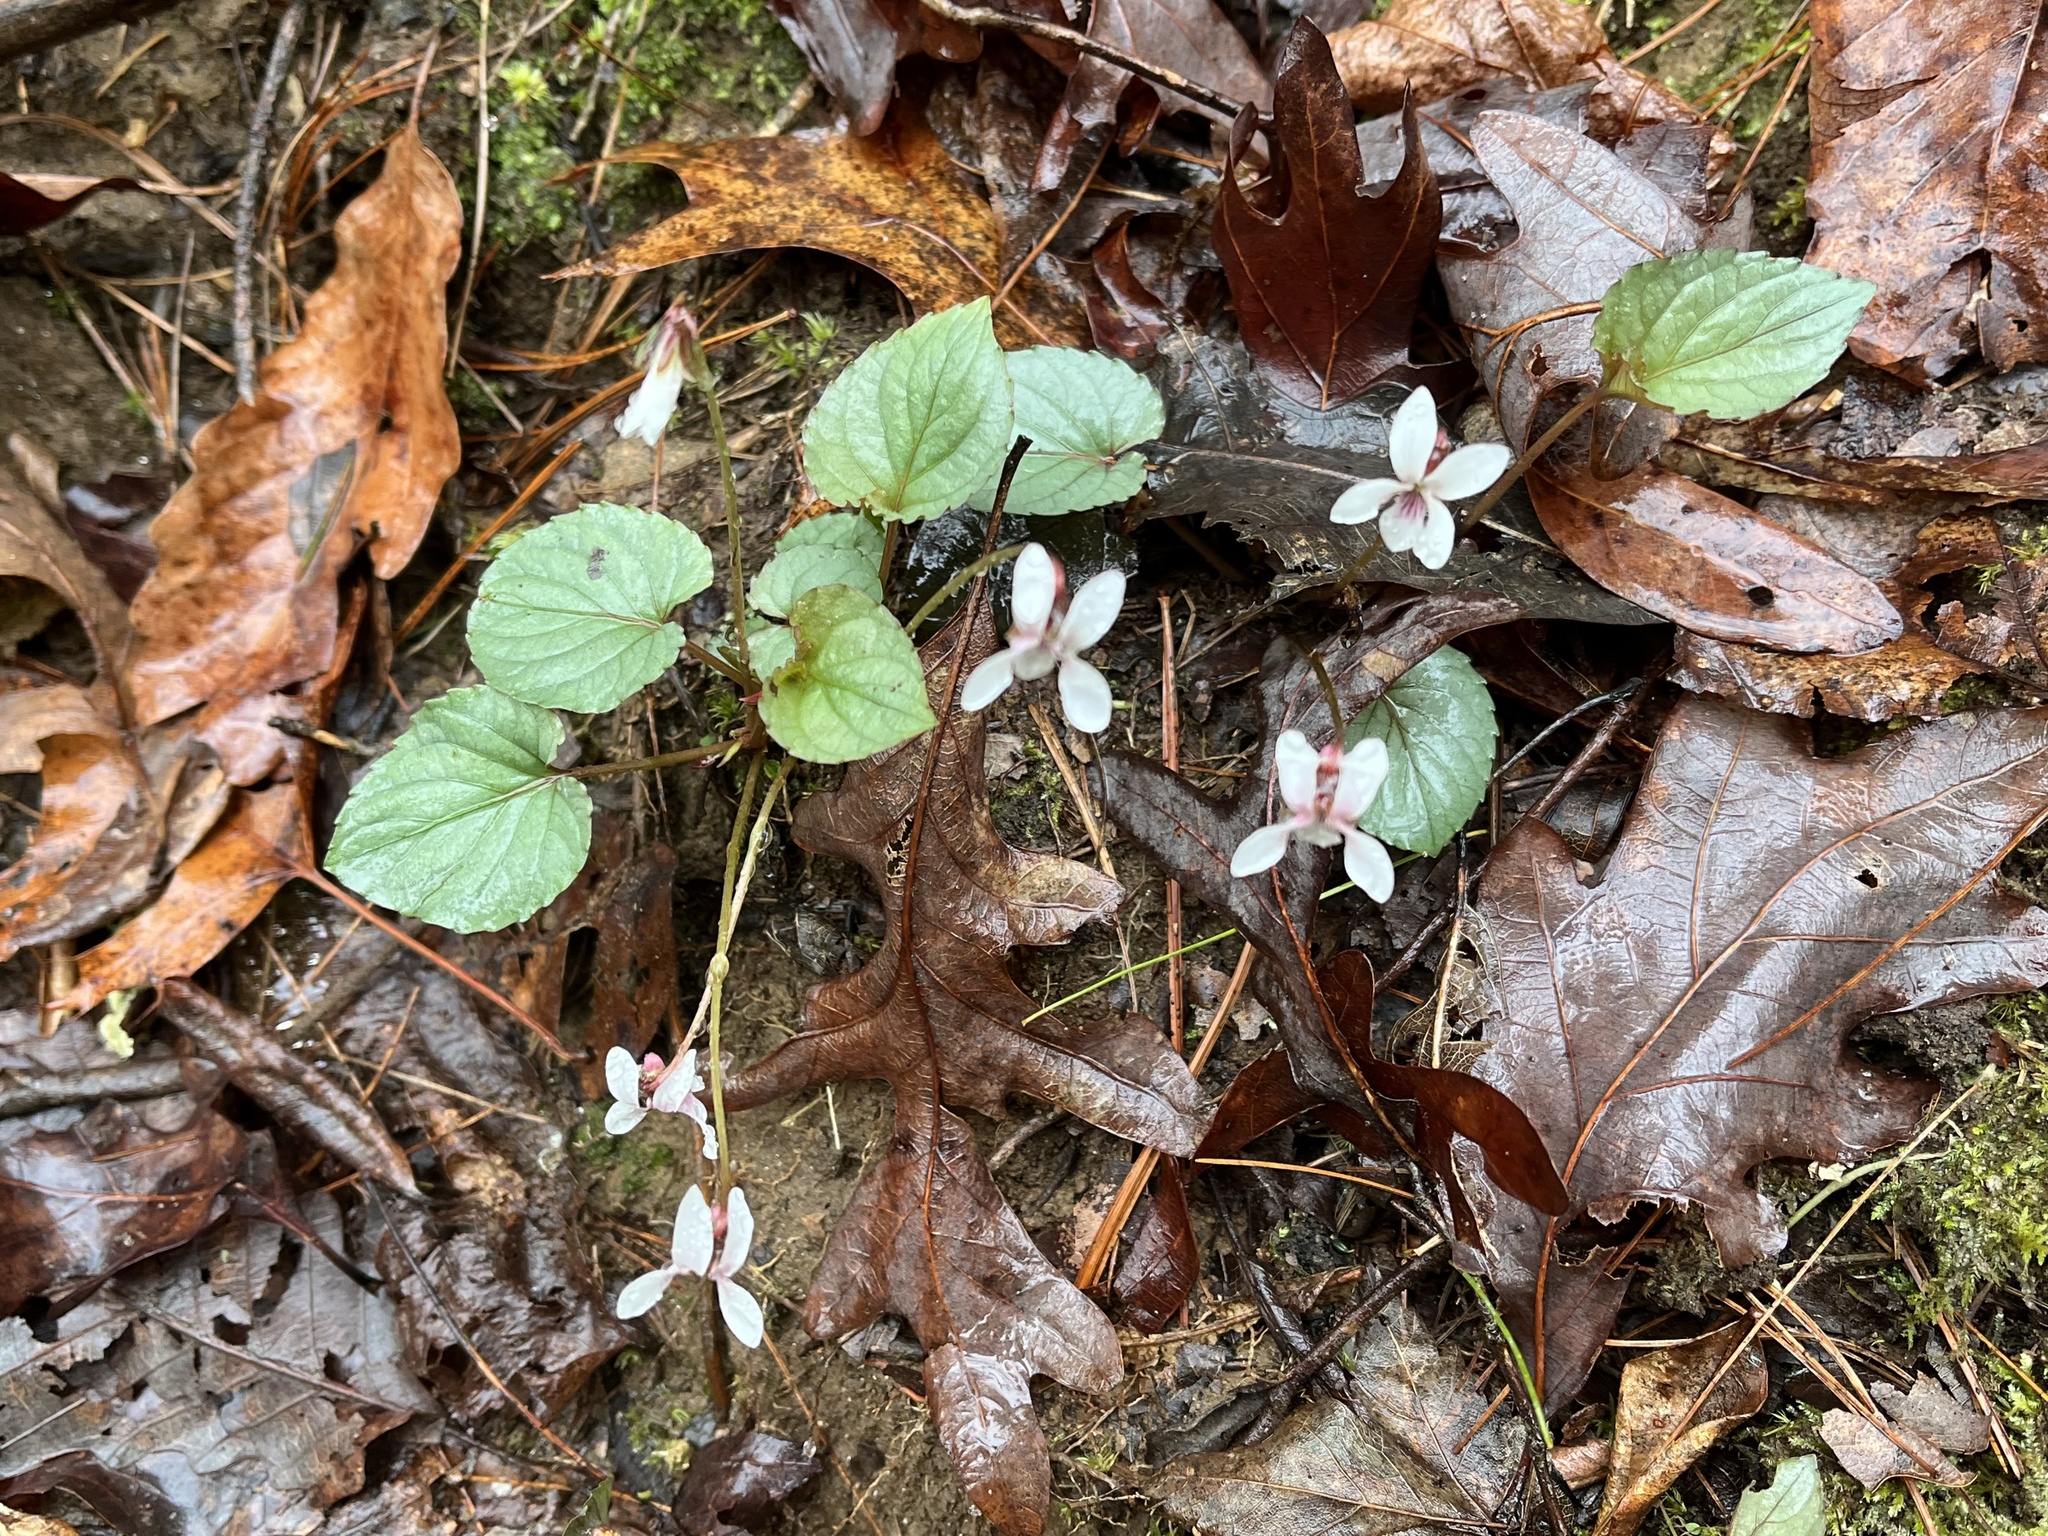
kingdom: Plantae
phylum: Tracheophyta
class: Magnoliopsida
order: Malpighiales
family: Violaceae
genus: Viola
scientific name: Viola blanda
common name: Sweet white violet
